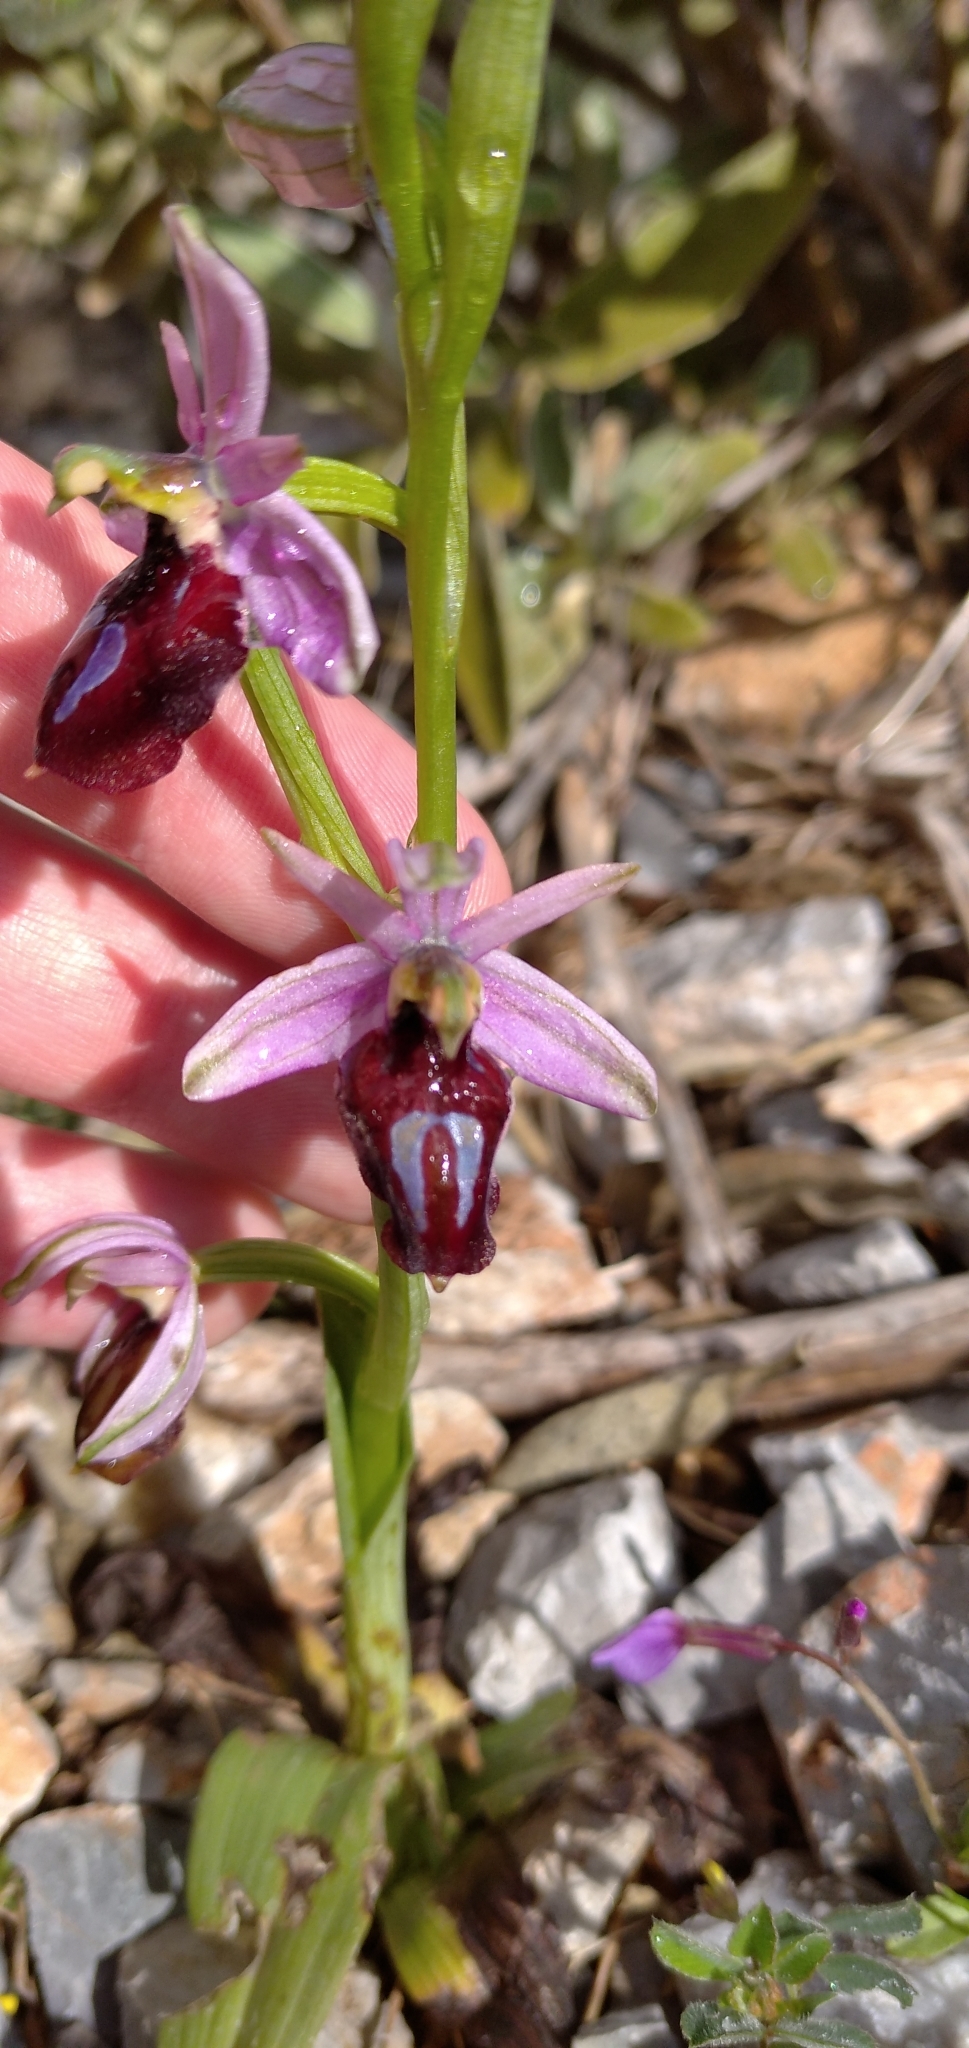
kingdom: Plantae
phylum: Tracheophyta
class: Liliopsida
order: Asparagales
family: Orchidaceae
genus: Ophrys
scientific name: Ophrys ferrum-equinum
